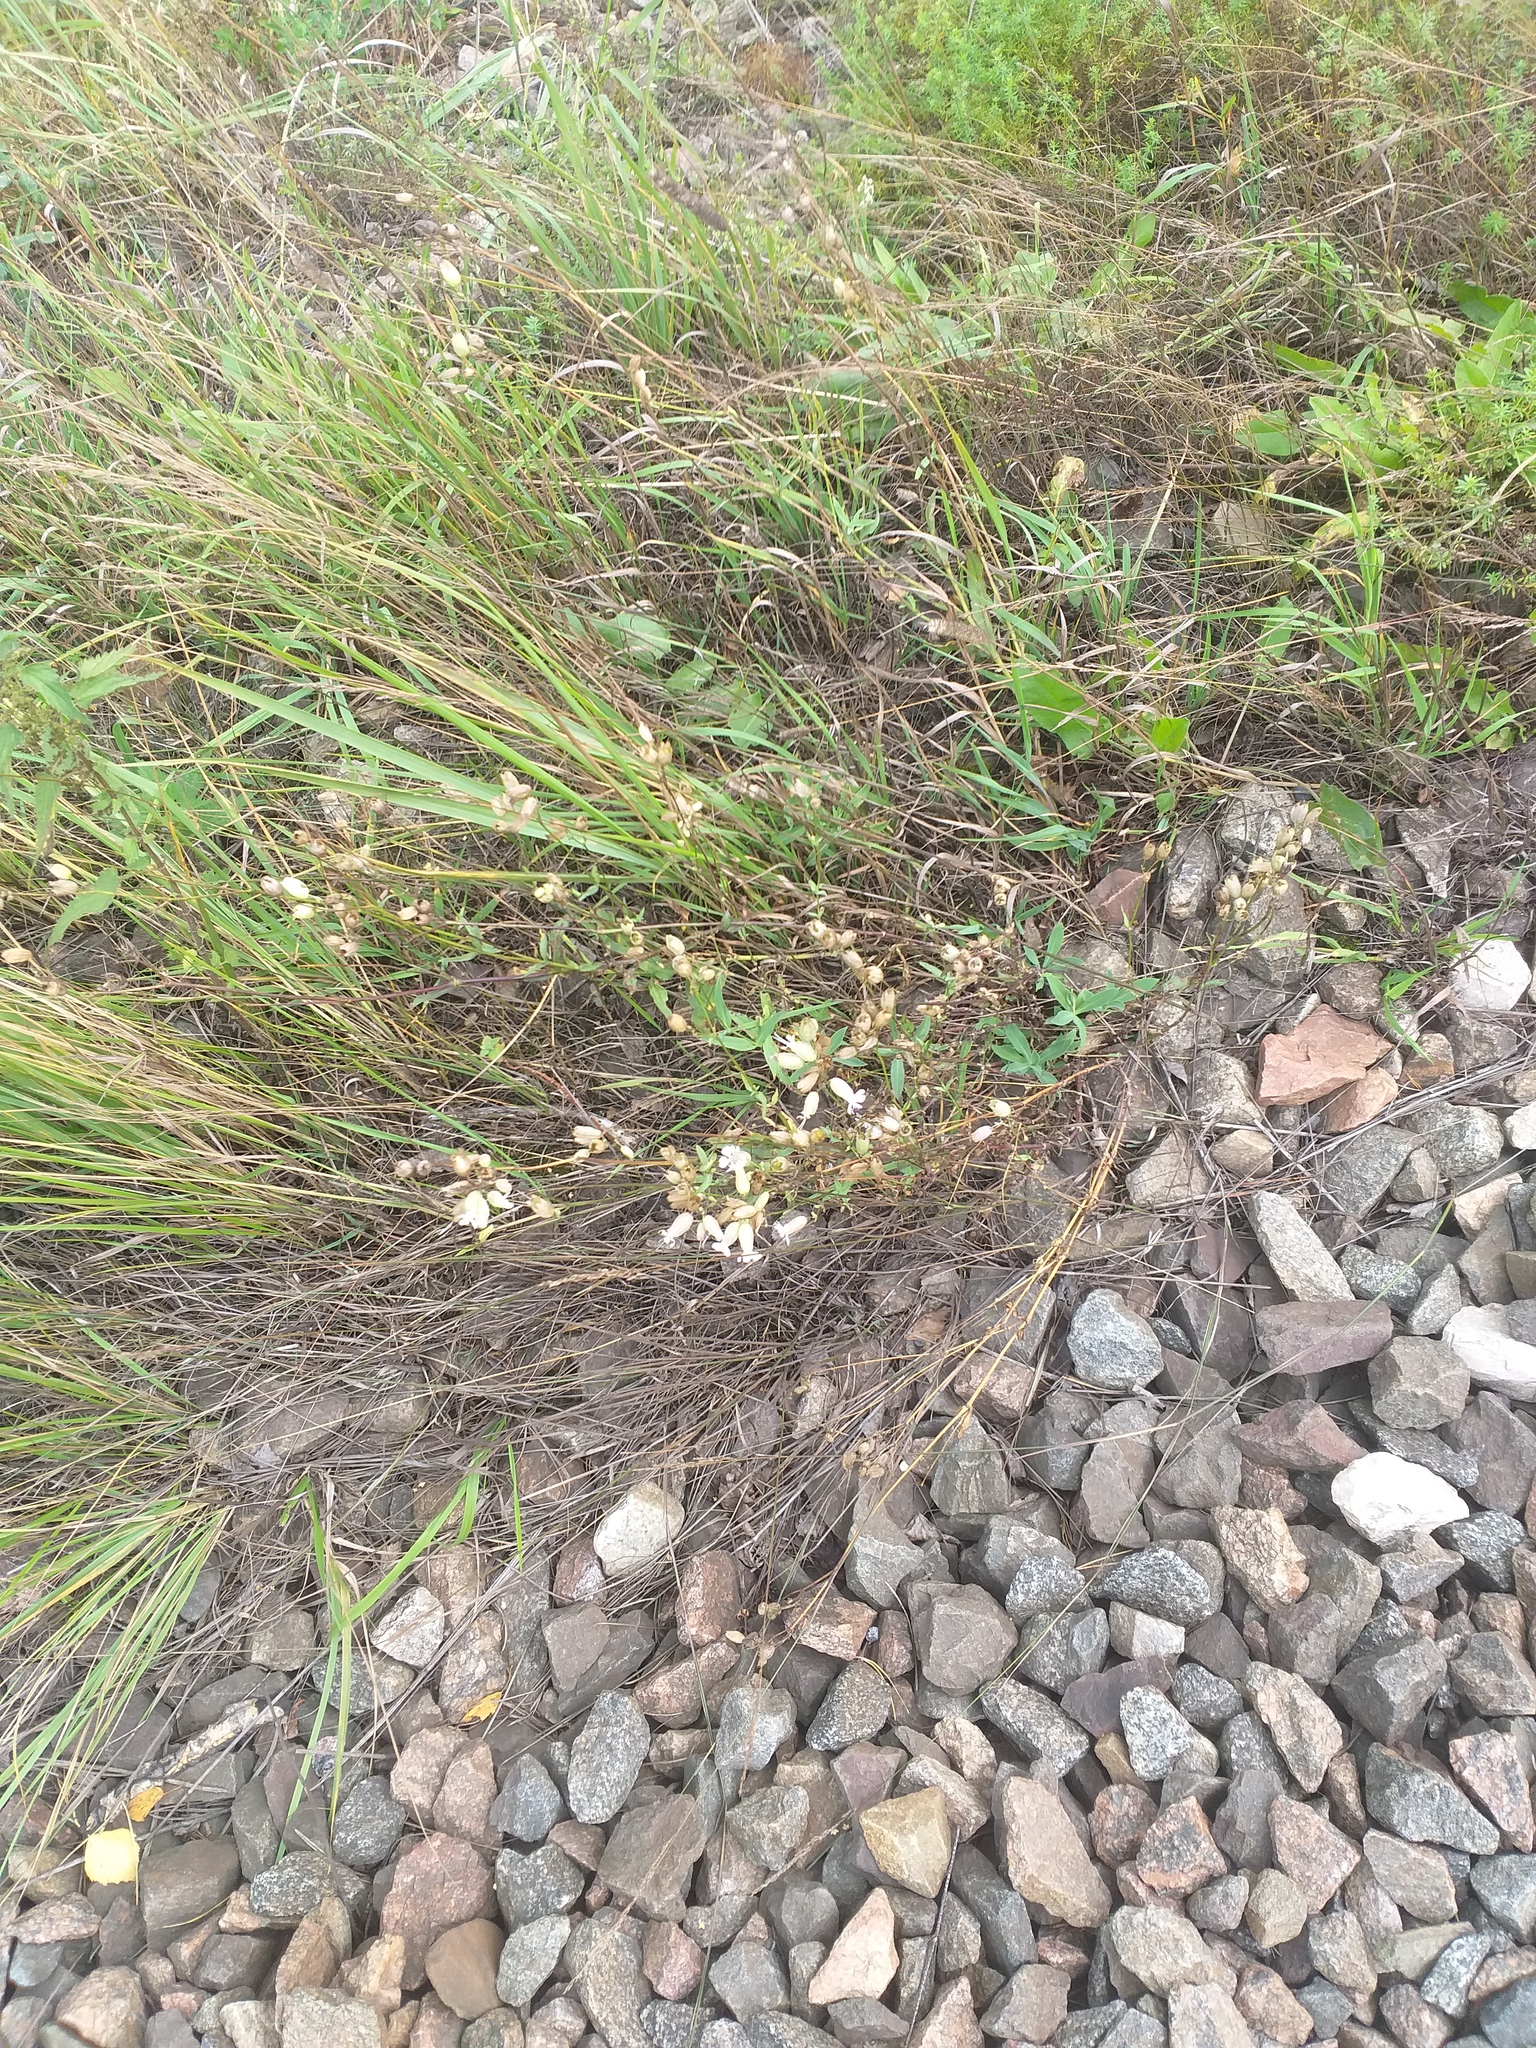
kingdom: Plantae
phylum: Tracheophyta
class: Magnoliopsida
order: Caryophyllales
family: Caryophyllaceae
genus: Silene
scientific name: Silene vulgaris
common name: Bladder campion
